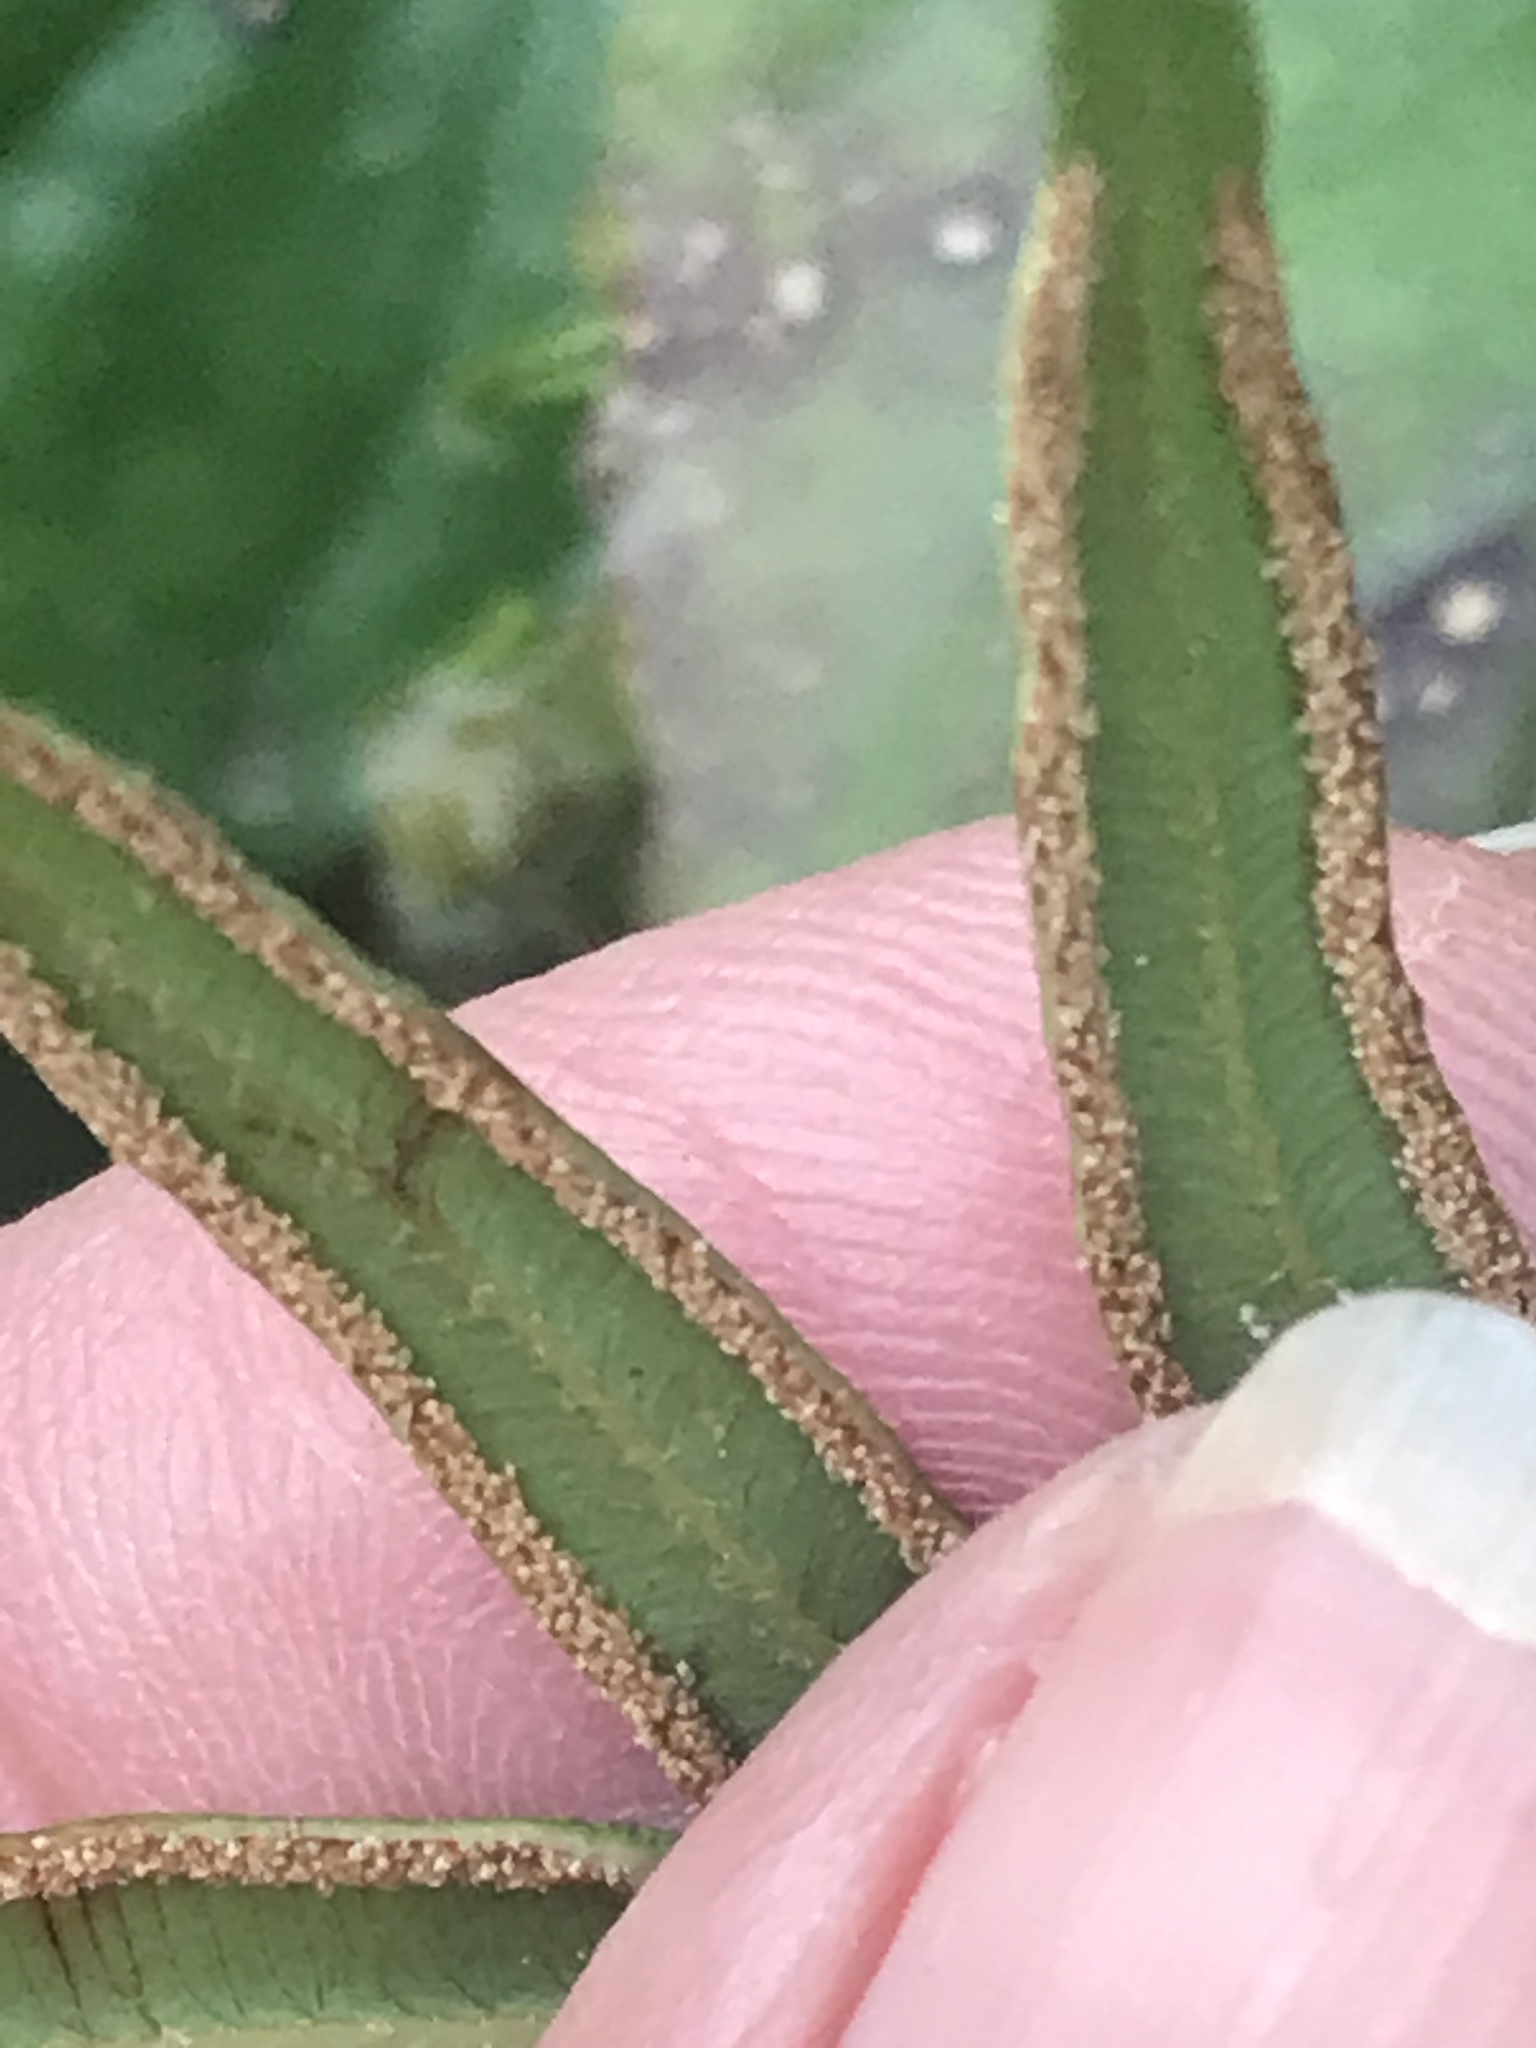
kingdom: Plantae
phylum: Tracheophyta
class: Polypodiopsida
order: Polypodiales
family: Pteridaceae
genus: Pteris
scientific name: Pteris vittata
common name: Ladder brake
